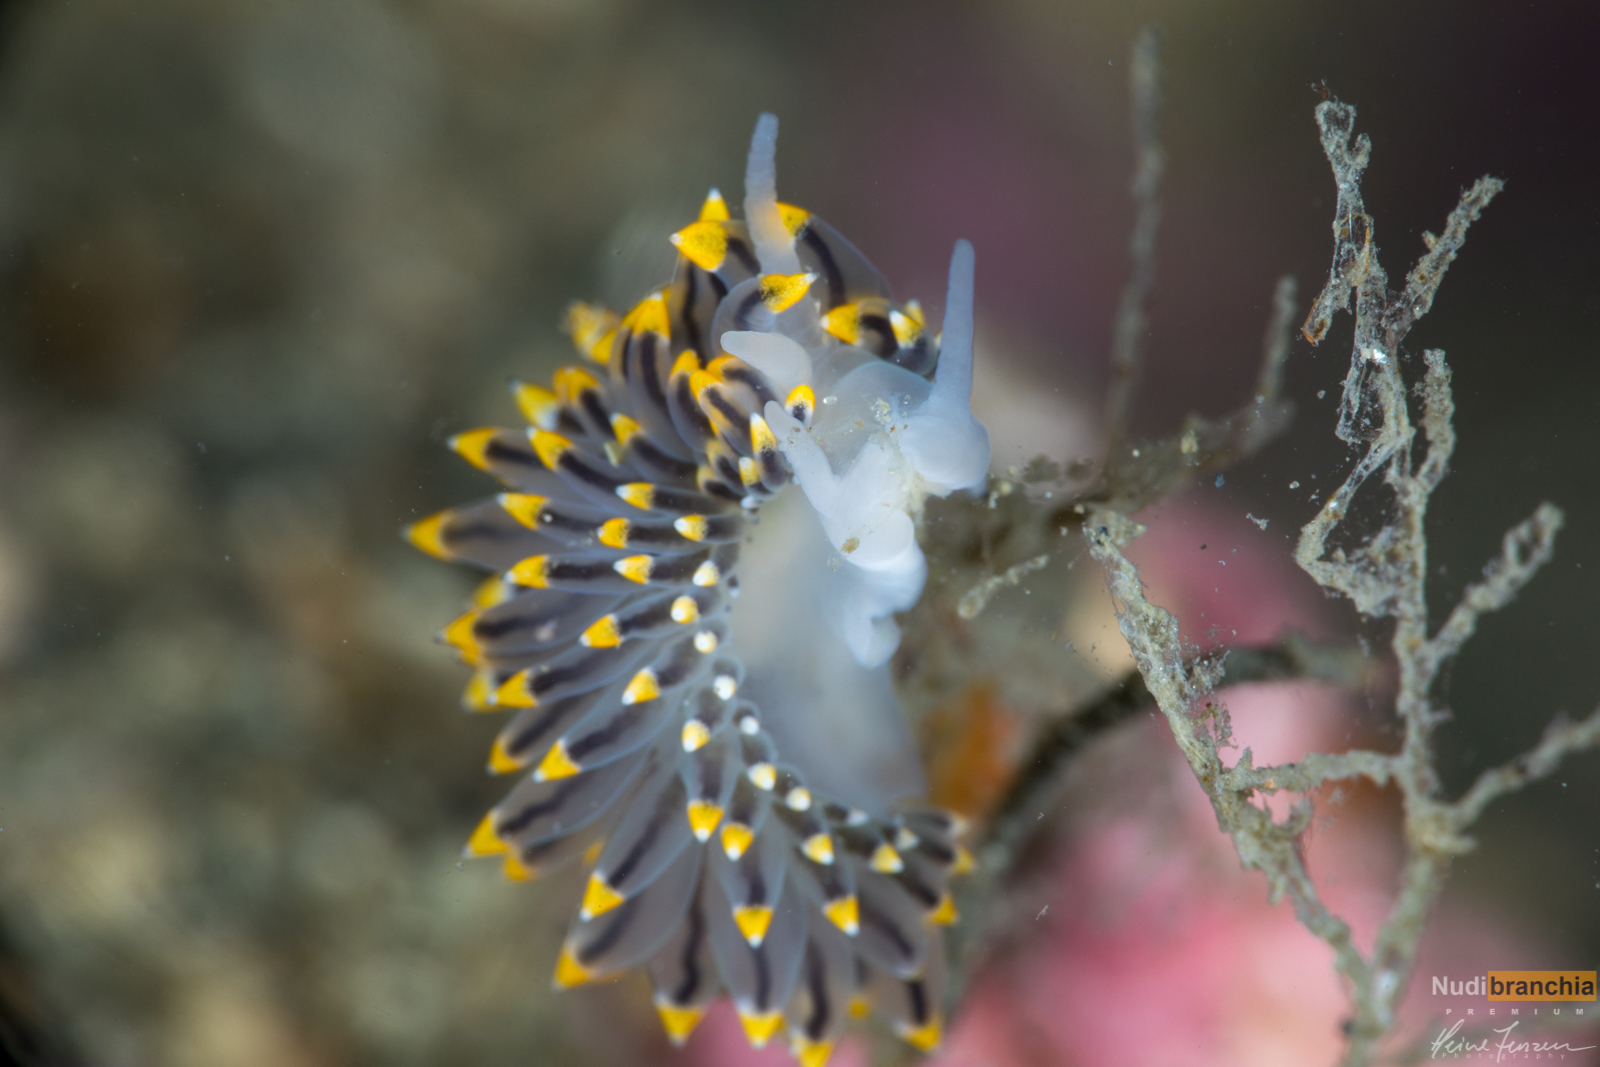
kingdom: Animalia
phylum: Mollusca
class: Gastropoda
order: Nudibranchia
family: Eubranchidae
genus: Eubranchus
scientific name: Eubranchus tricolor
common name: Painted balloon aeolis
